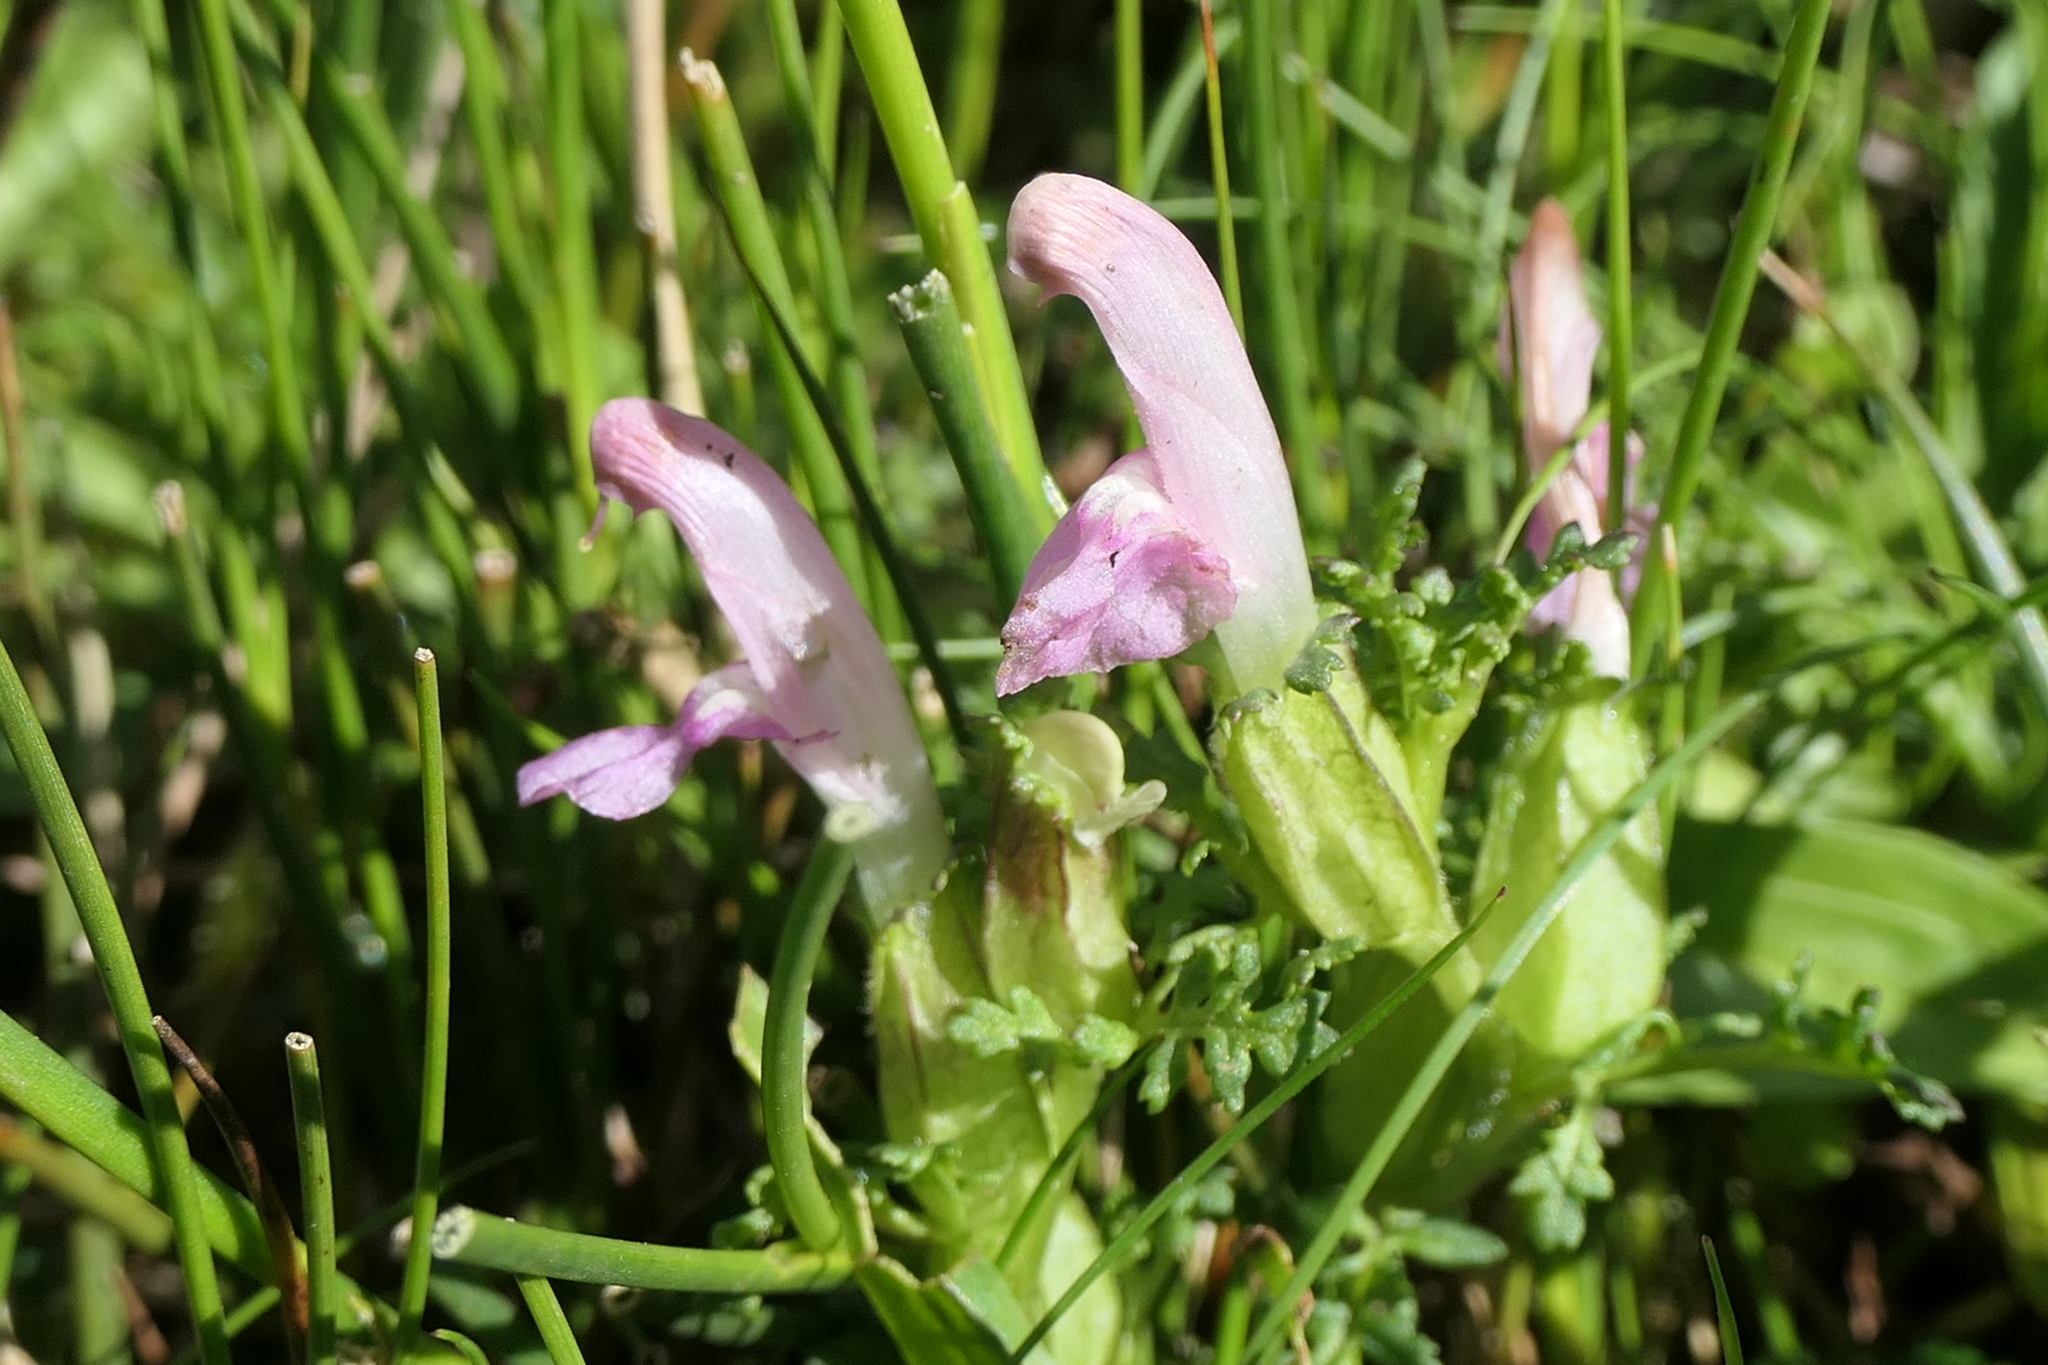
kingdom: Plantae
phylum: Tracheophyta
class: Magnoliopsida
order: Lamiales
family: Orobanchaceae
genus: Pedicularis
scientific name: Pedicularis sylvatica
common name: Lousewort
